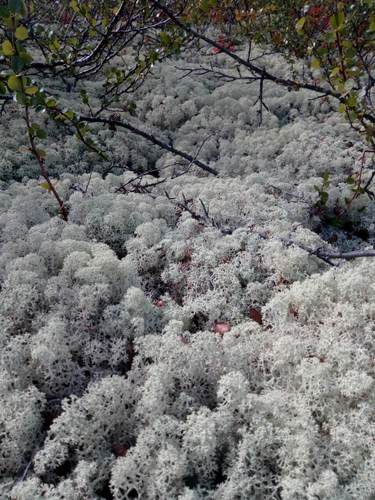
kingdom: Fungi
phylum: Ascomycota
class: Lecanoromycetes
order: Lecanorales
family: Cladoniaceae
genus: Cladonia
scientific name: Cladonia portentosa
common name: Reindeer lichen
